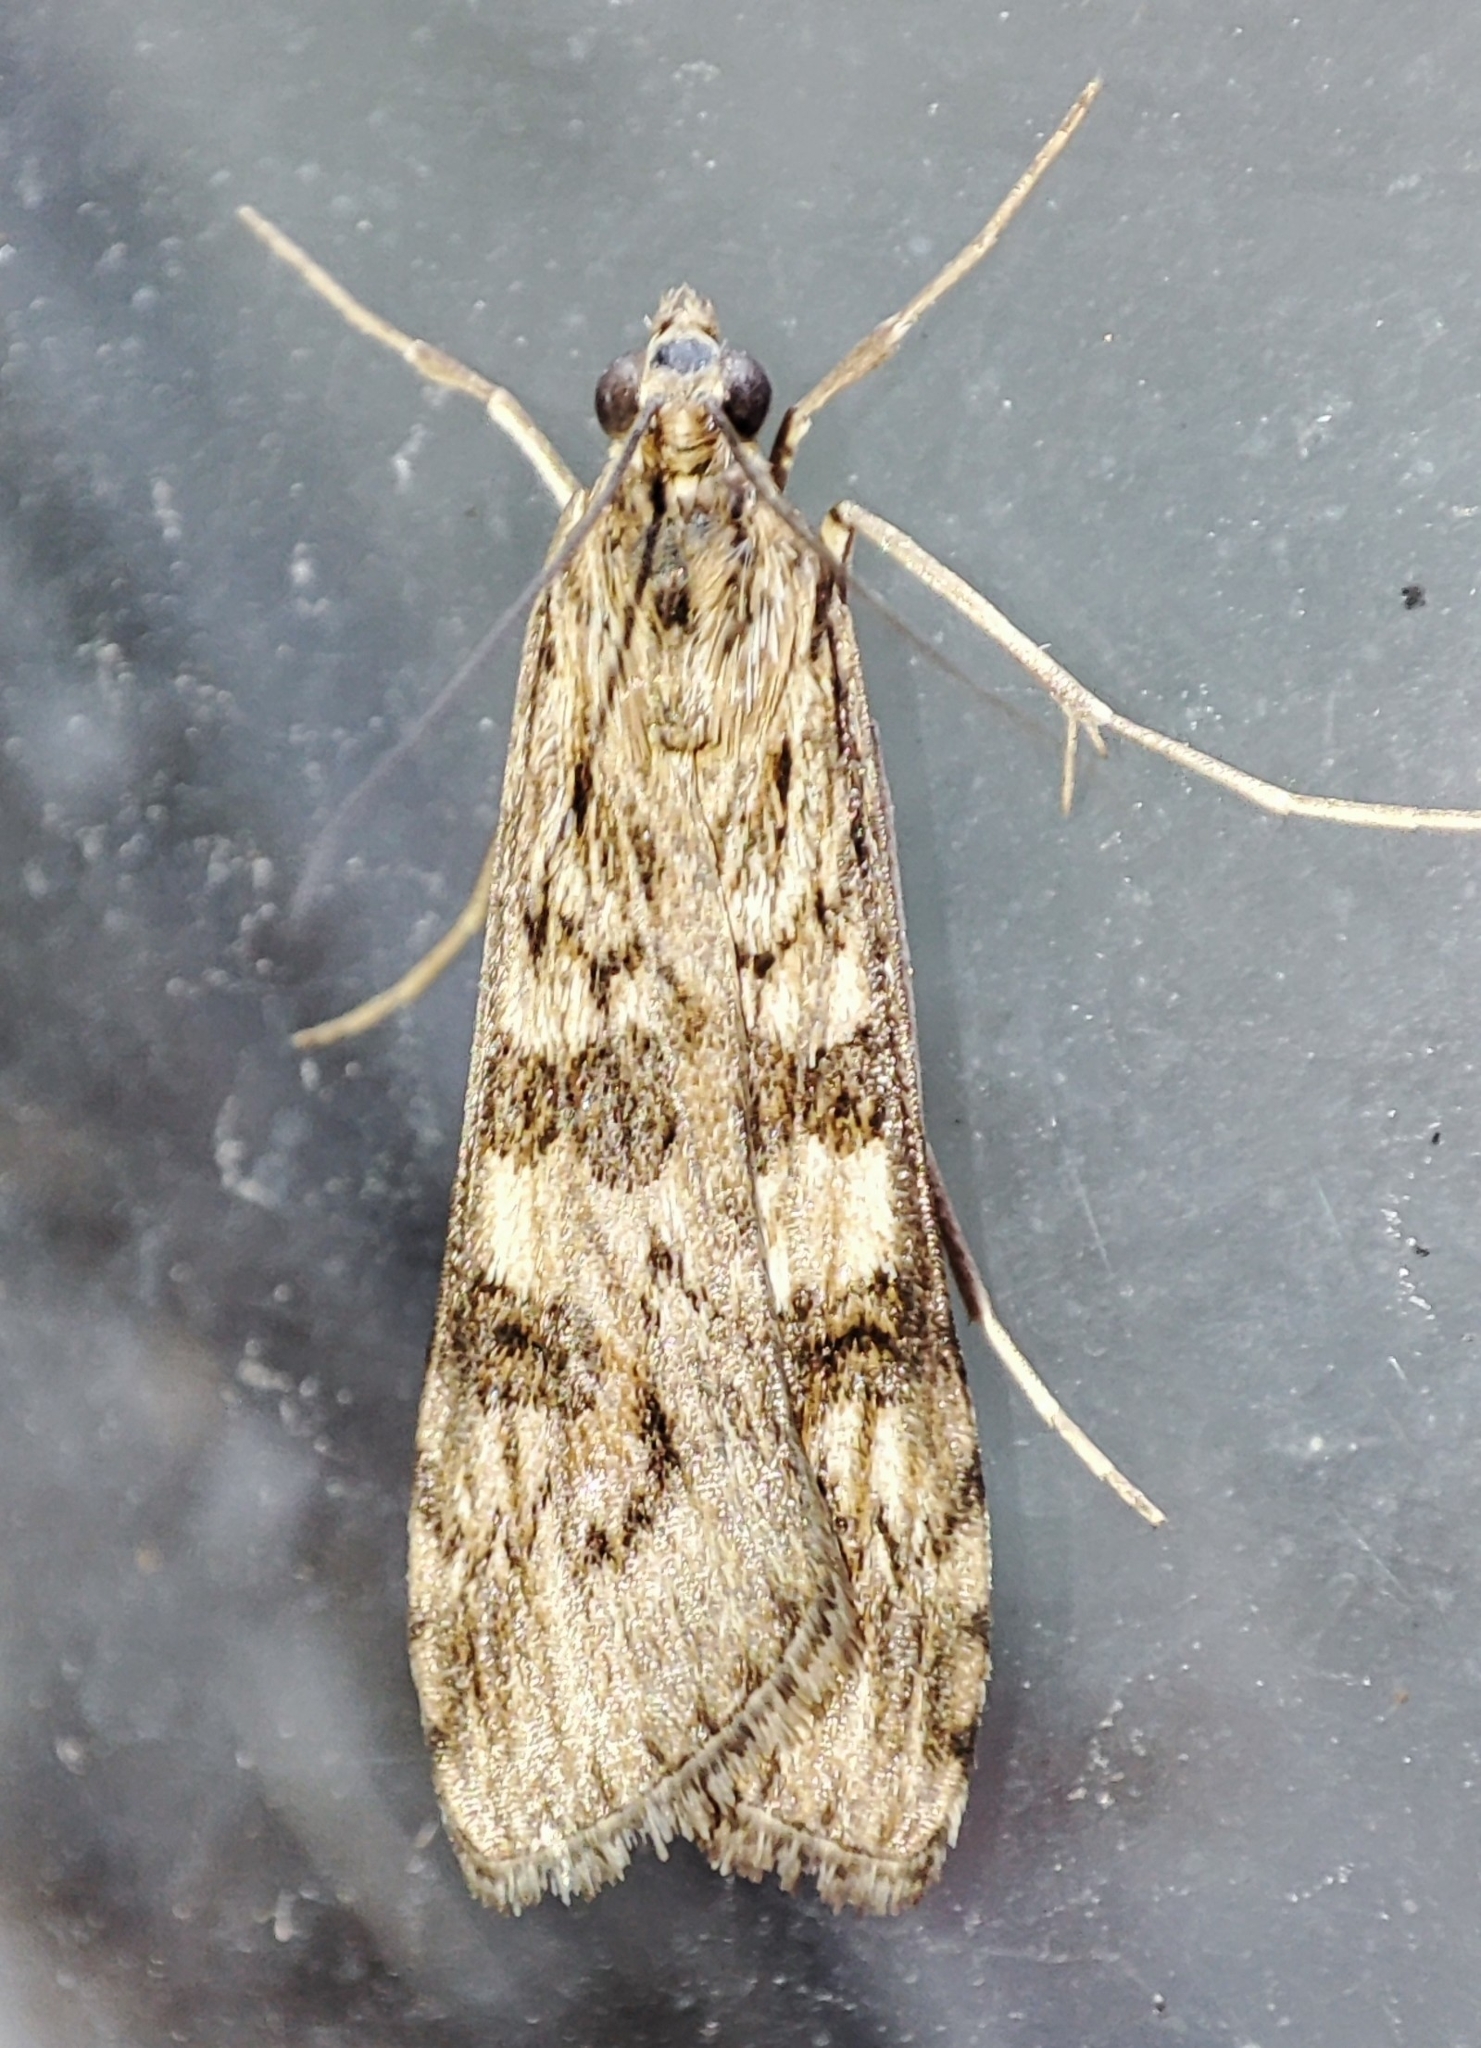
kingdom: Animalia
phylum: Arthropoda
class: Insecta
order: Lepidoptera
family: Crambidae
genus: Nomophila
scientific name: Nomophila noctuella
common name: Rush veneer
